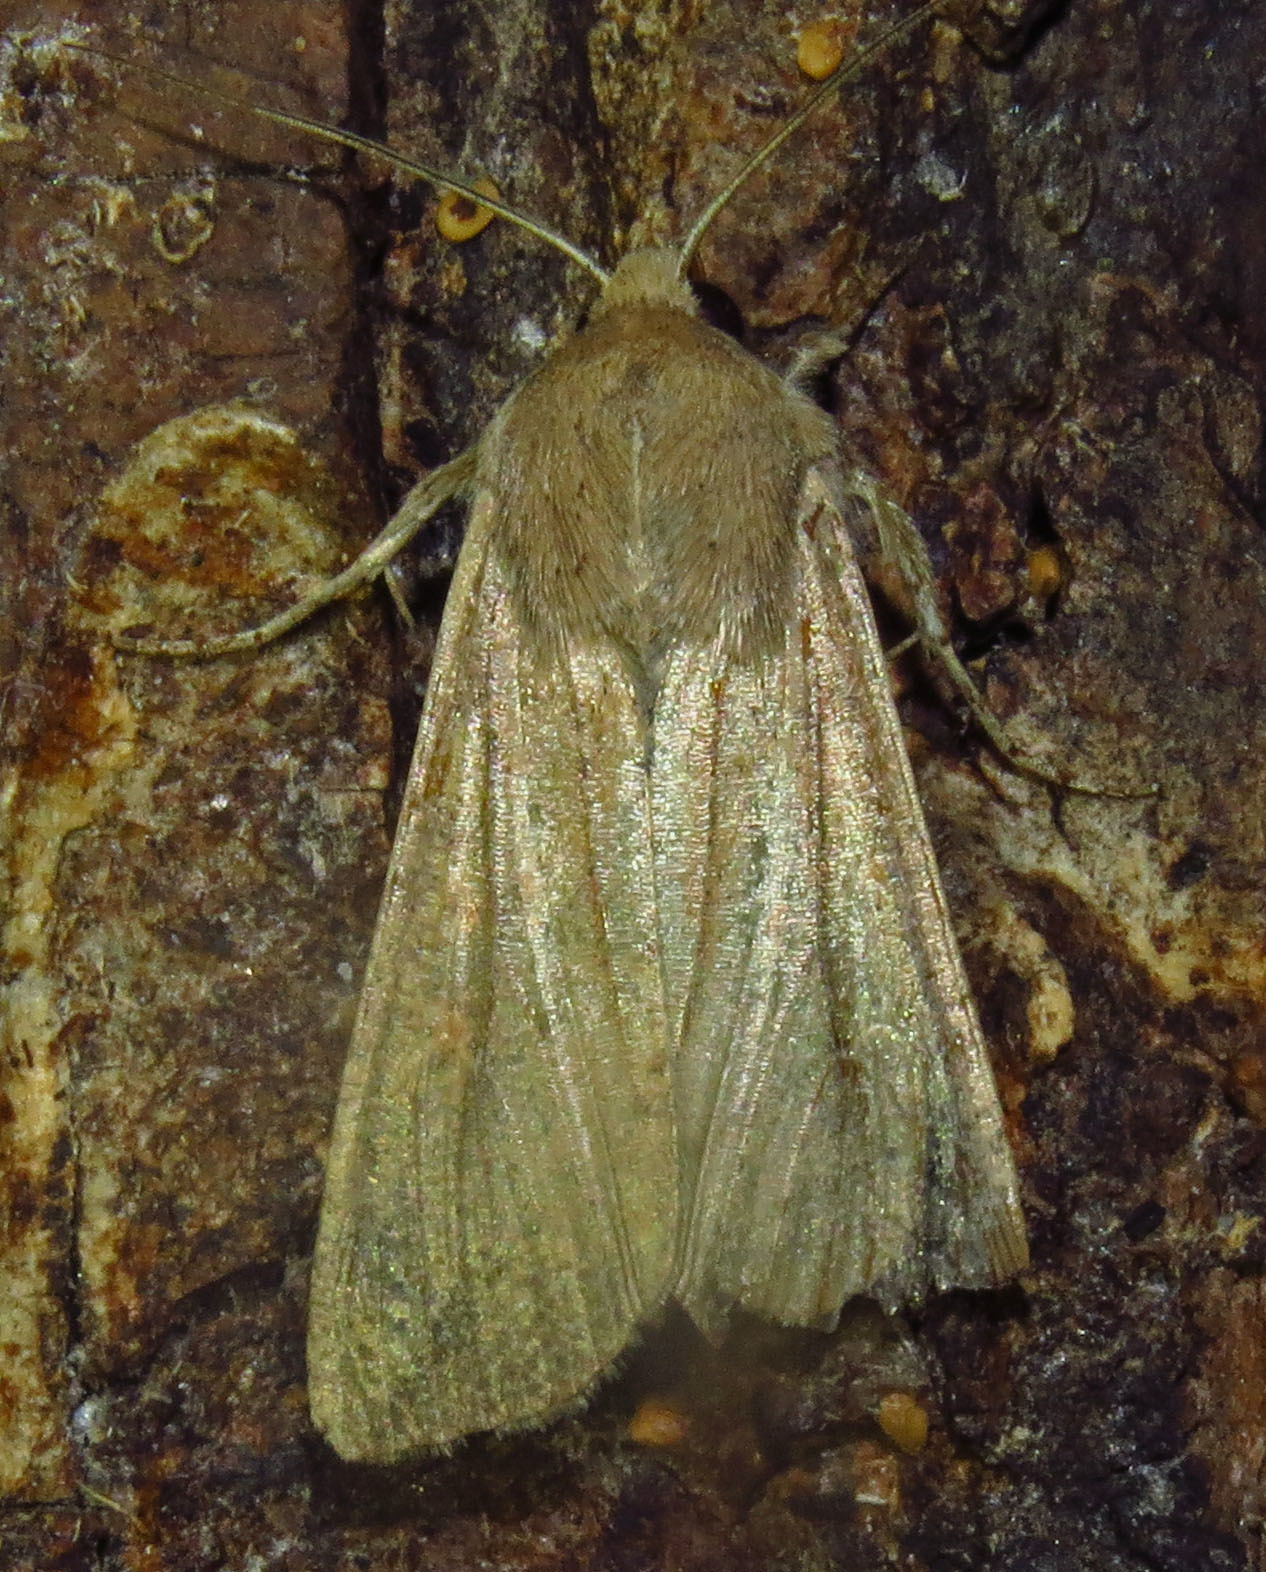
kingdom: Animalia
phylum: Arthropoda
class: Insecta
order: Lepidoptera
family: Noctuidae
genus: Mythimna
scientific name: Mythimna unipuncta
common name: White-speck
